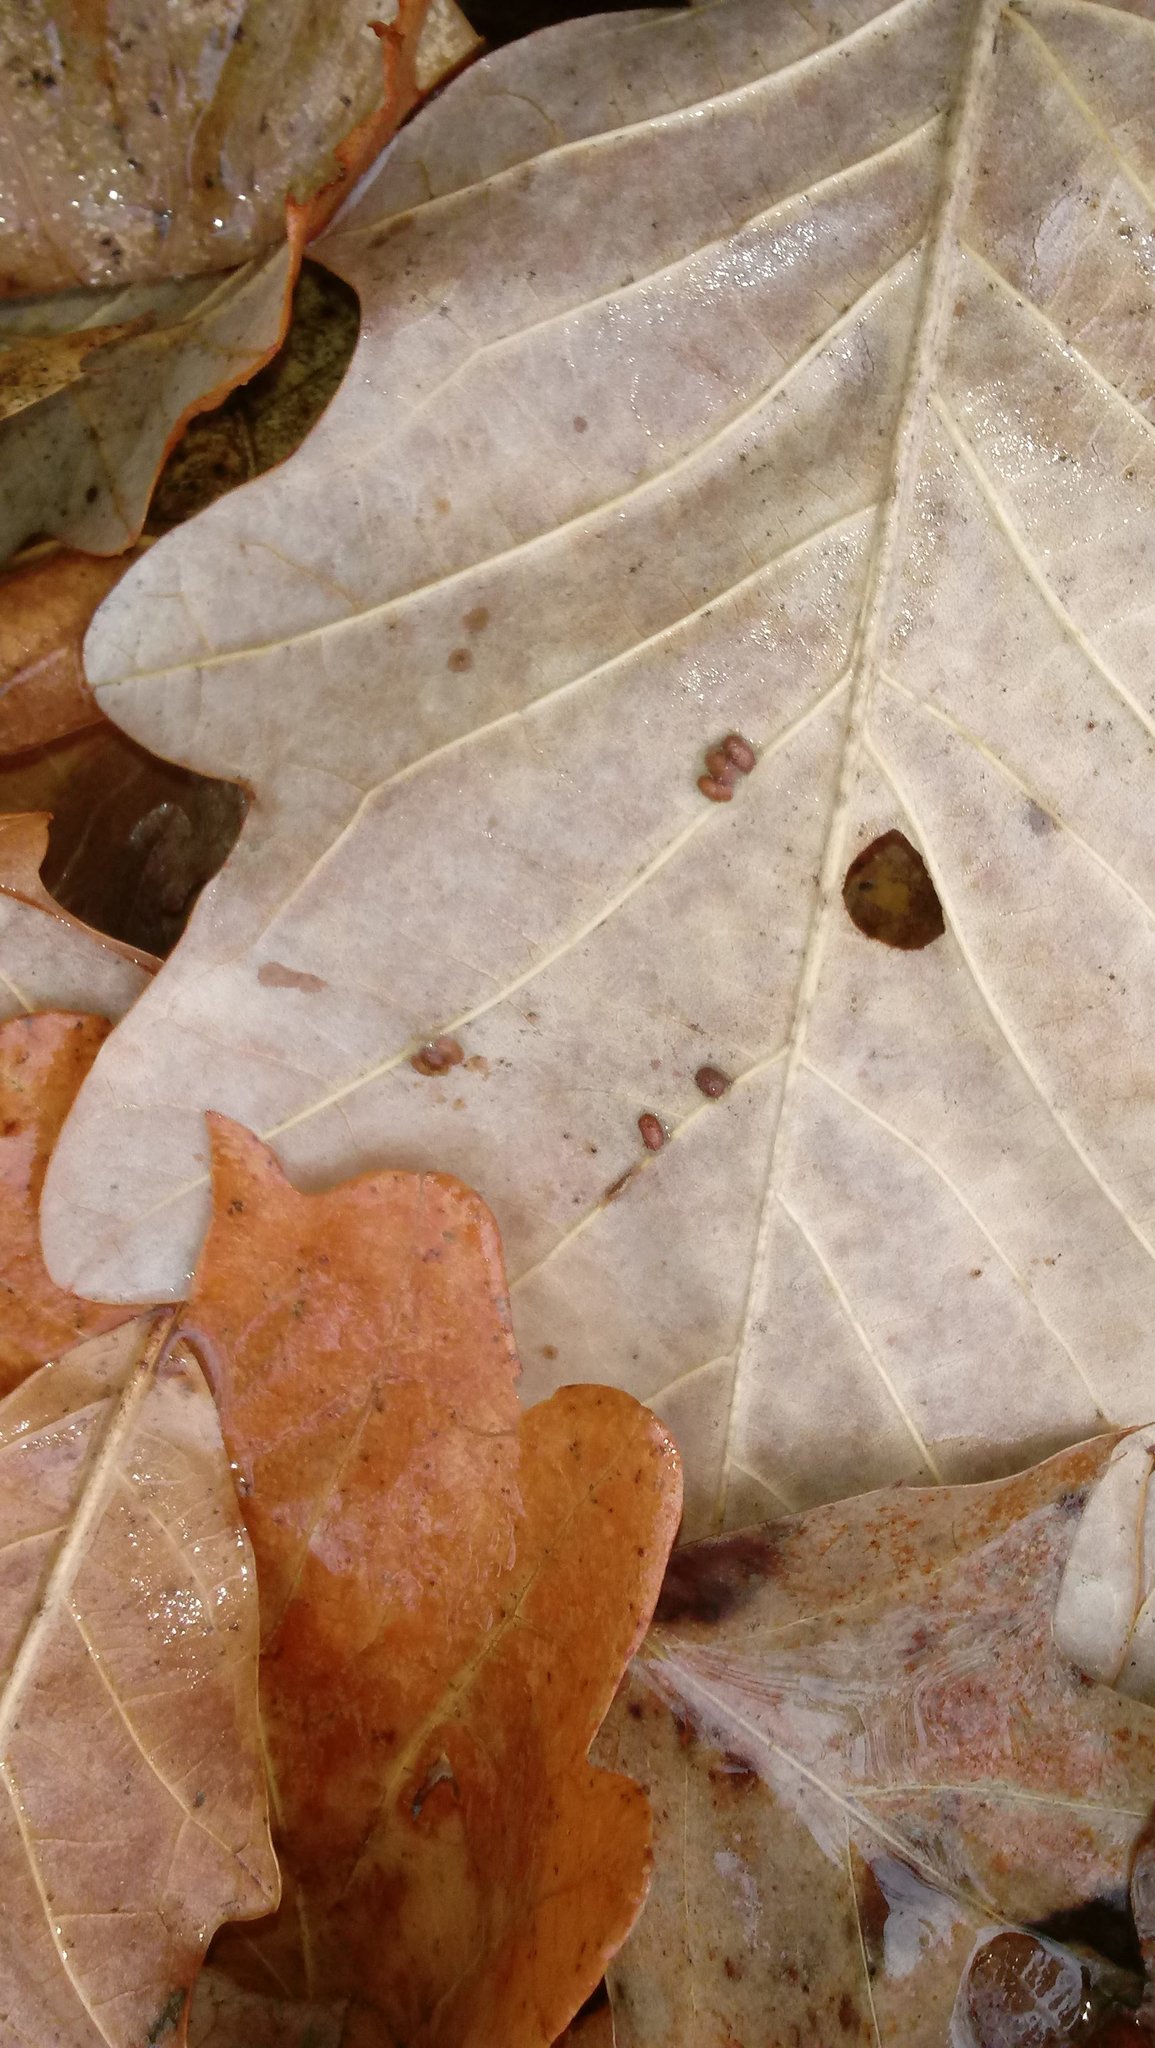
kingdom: Animalia
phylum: Arthropoda
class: Insecta
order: Hymenoptera
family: Cynipidae
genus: Andricus
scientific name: Andricus Druon ignotum
